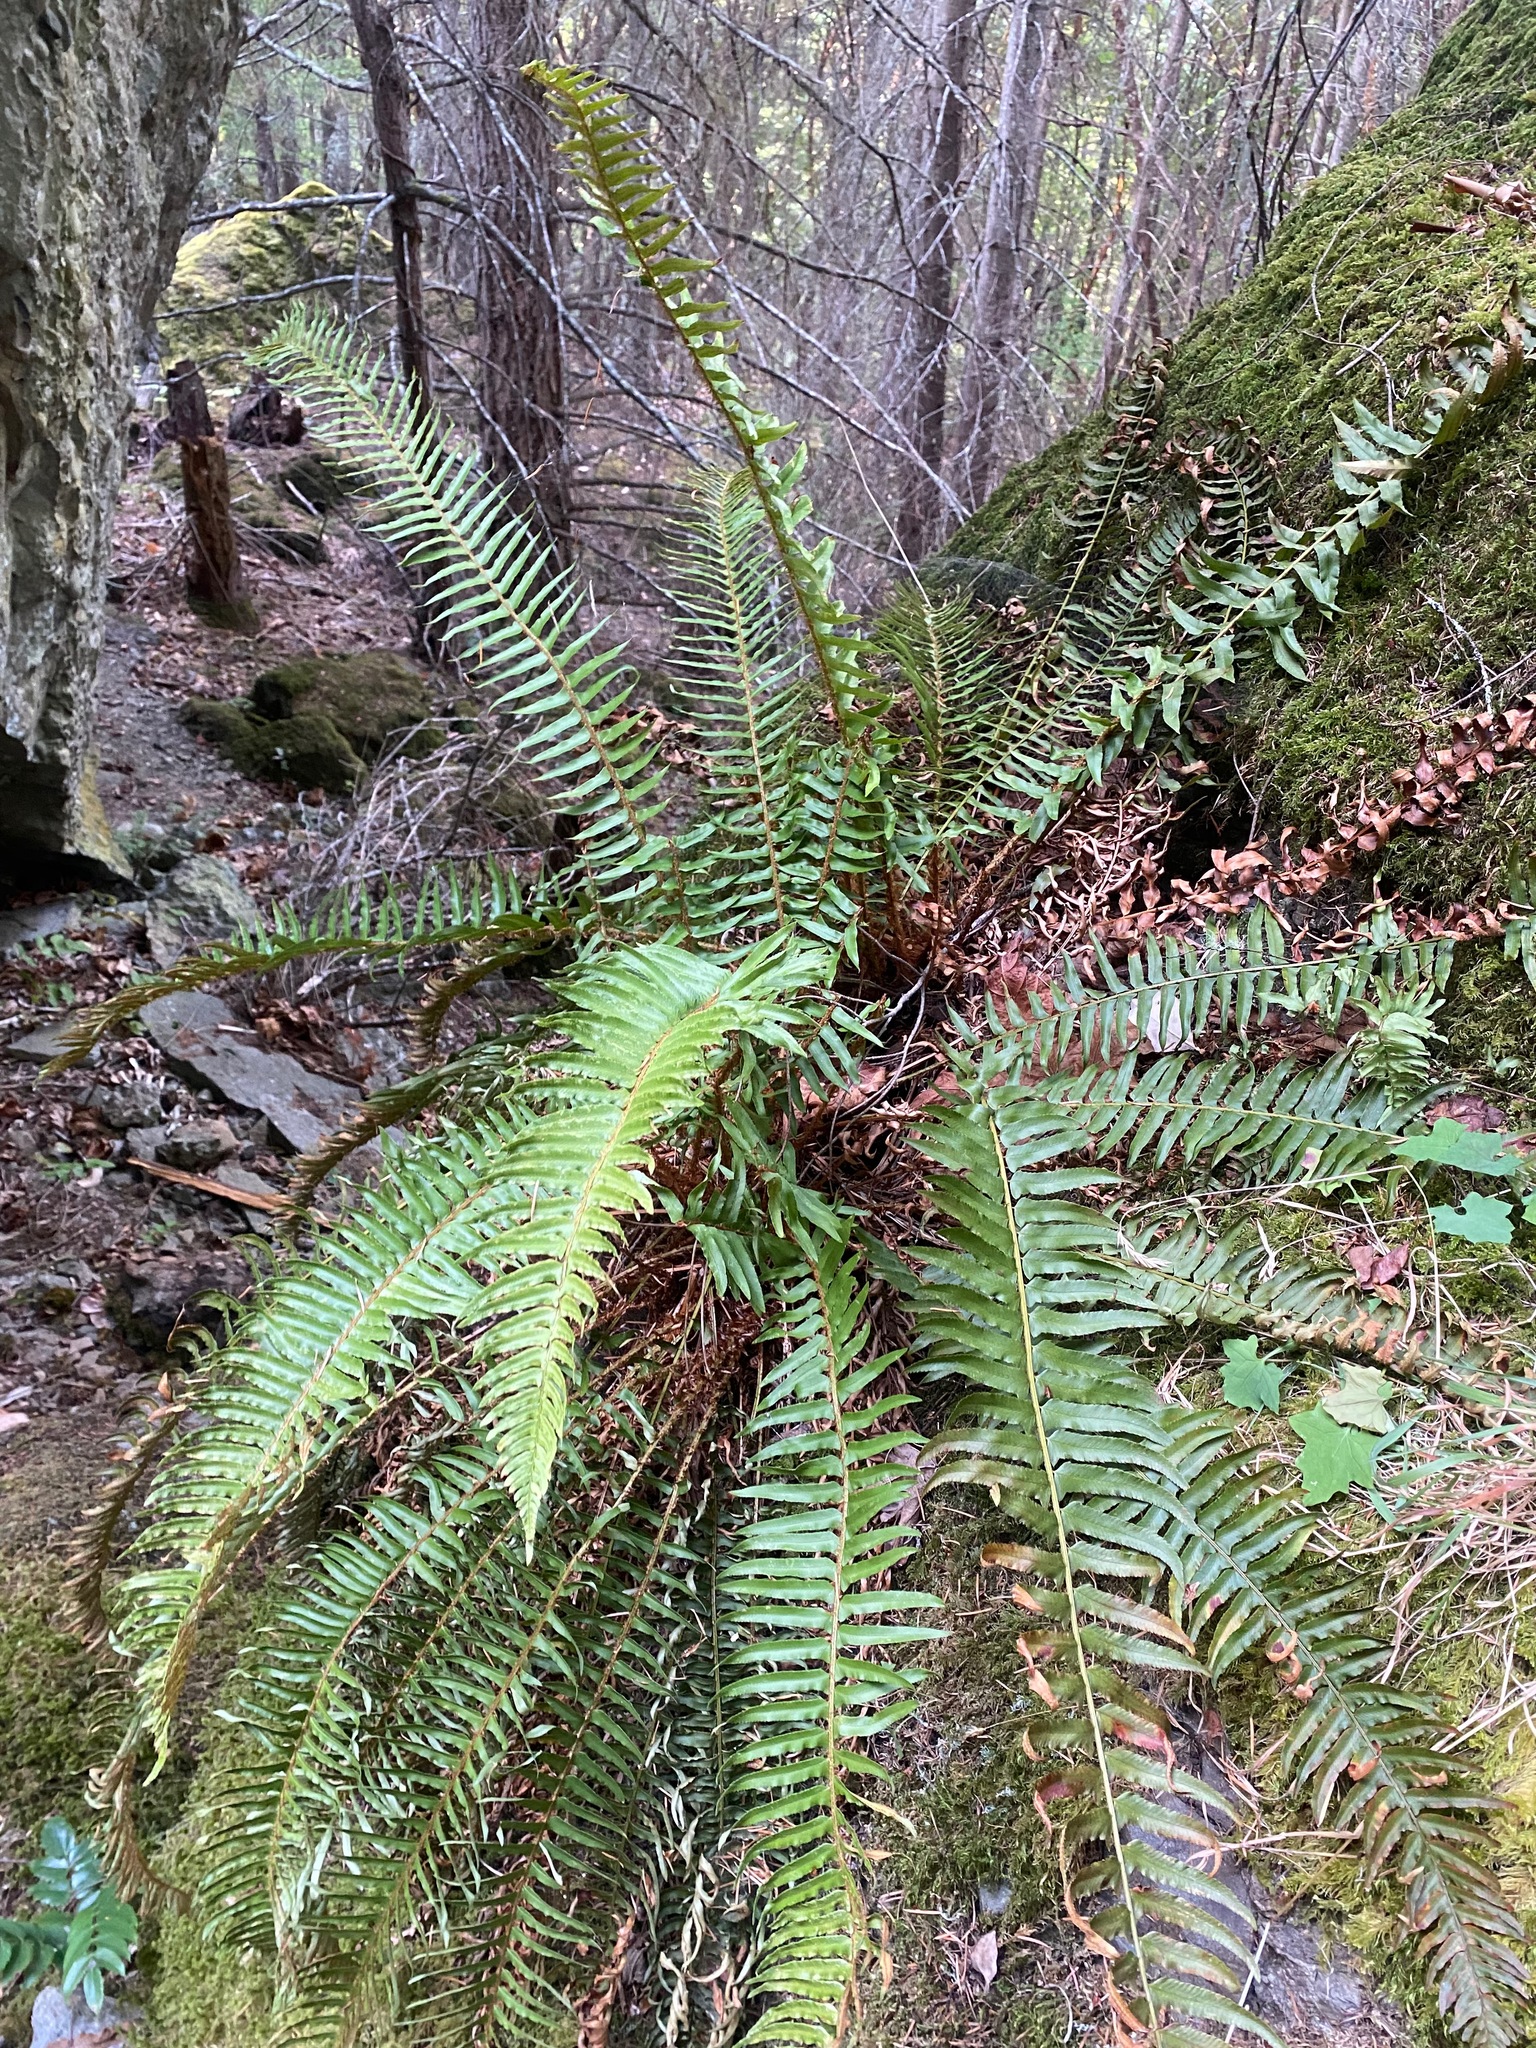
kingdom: Plantae
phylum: Tracheophyta
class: Polypodiopsida
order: Polypodiales
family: Dryopteridaceae
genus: Polystichum
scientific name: Polystichum munitum
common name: Western sword-fern
